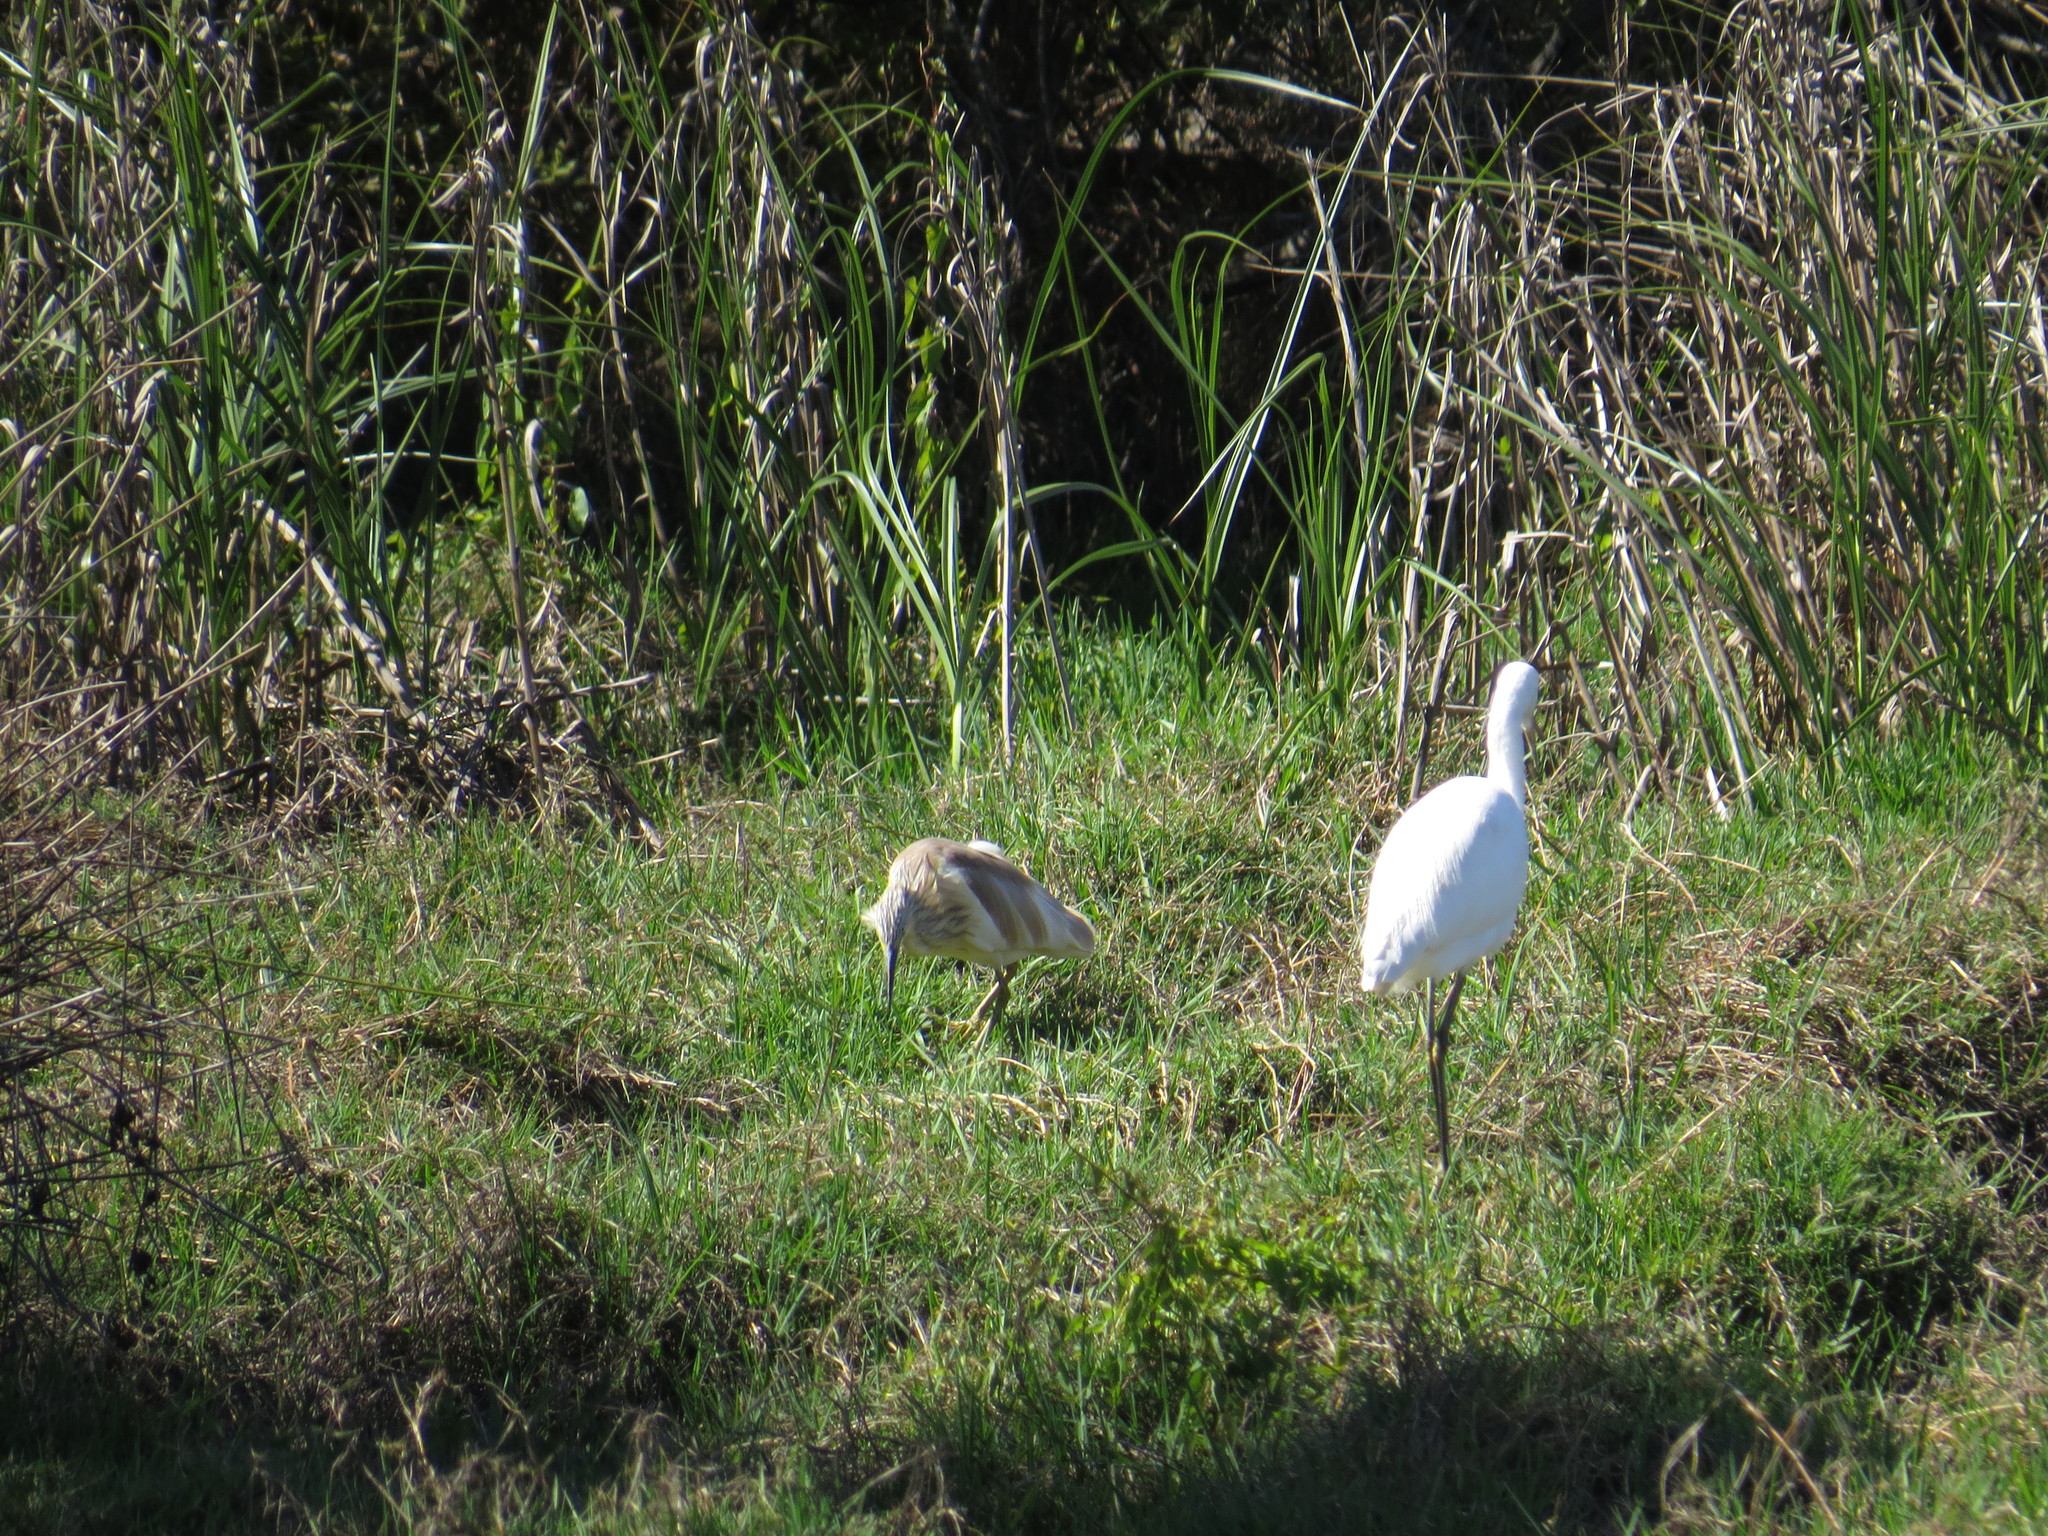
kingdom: Animalia
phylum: Chordata
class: Aves
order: Pelecaniformes
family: Ardeidae
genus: Ardeola
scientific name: Ardeola ralloides
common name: Squacco heron
